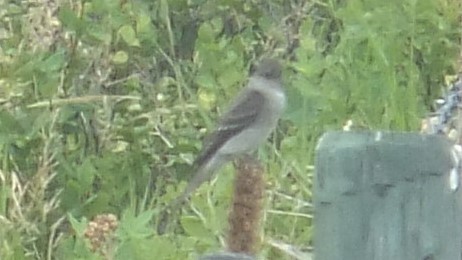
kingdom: Animalia
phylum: Chordata
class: Aves
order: Passeriformes
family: Tyrannidae
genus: Contopus
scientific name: Contopus sordidulus
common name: Western wood-pewee
